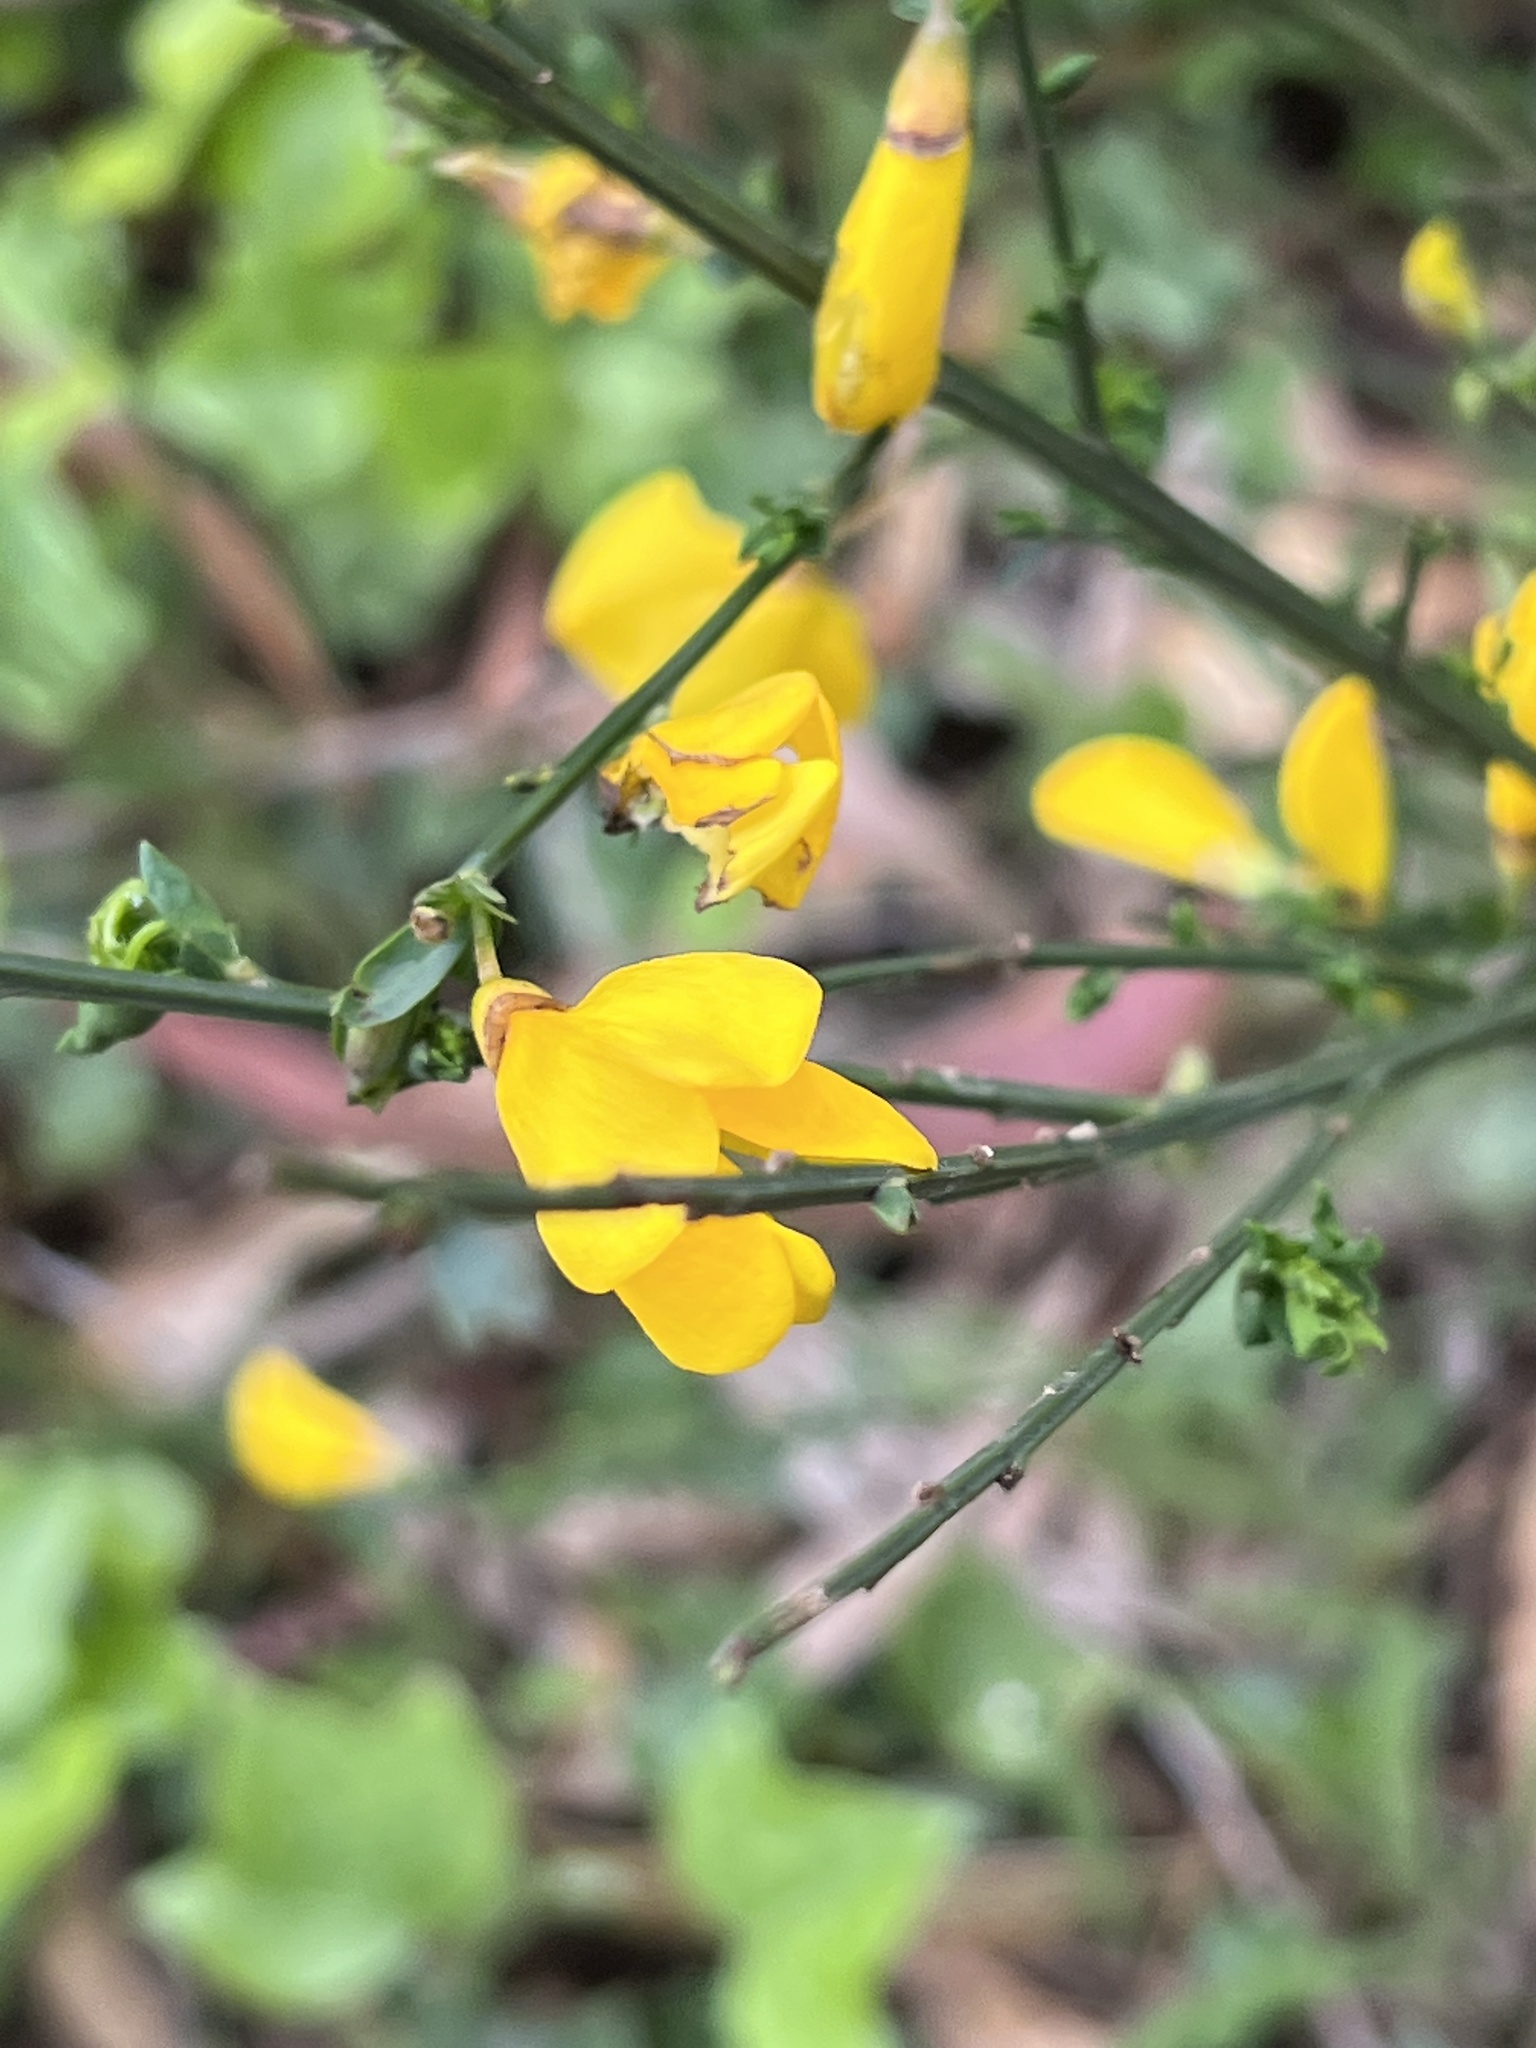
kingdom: Plantae
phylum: Tracheophyta
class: Magnoliopsida
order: Fabales
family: Fabaceae
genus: Cytisus
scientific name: Cytisus scoparius
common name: Scotch broom
